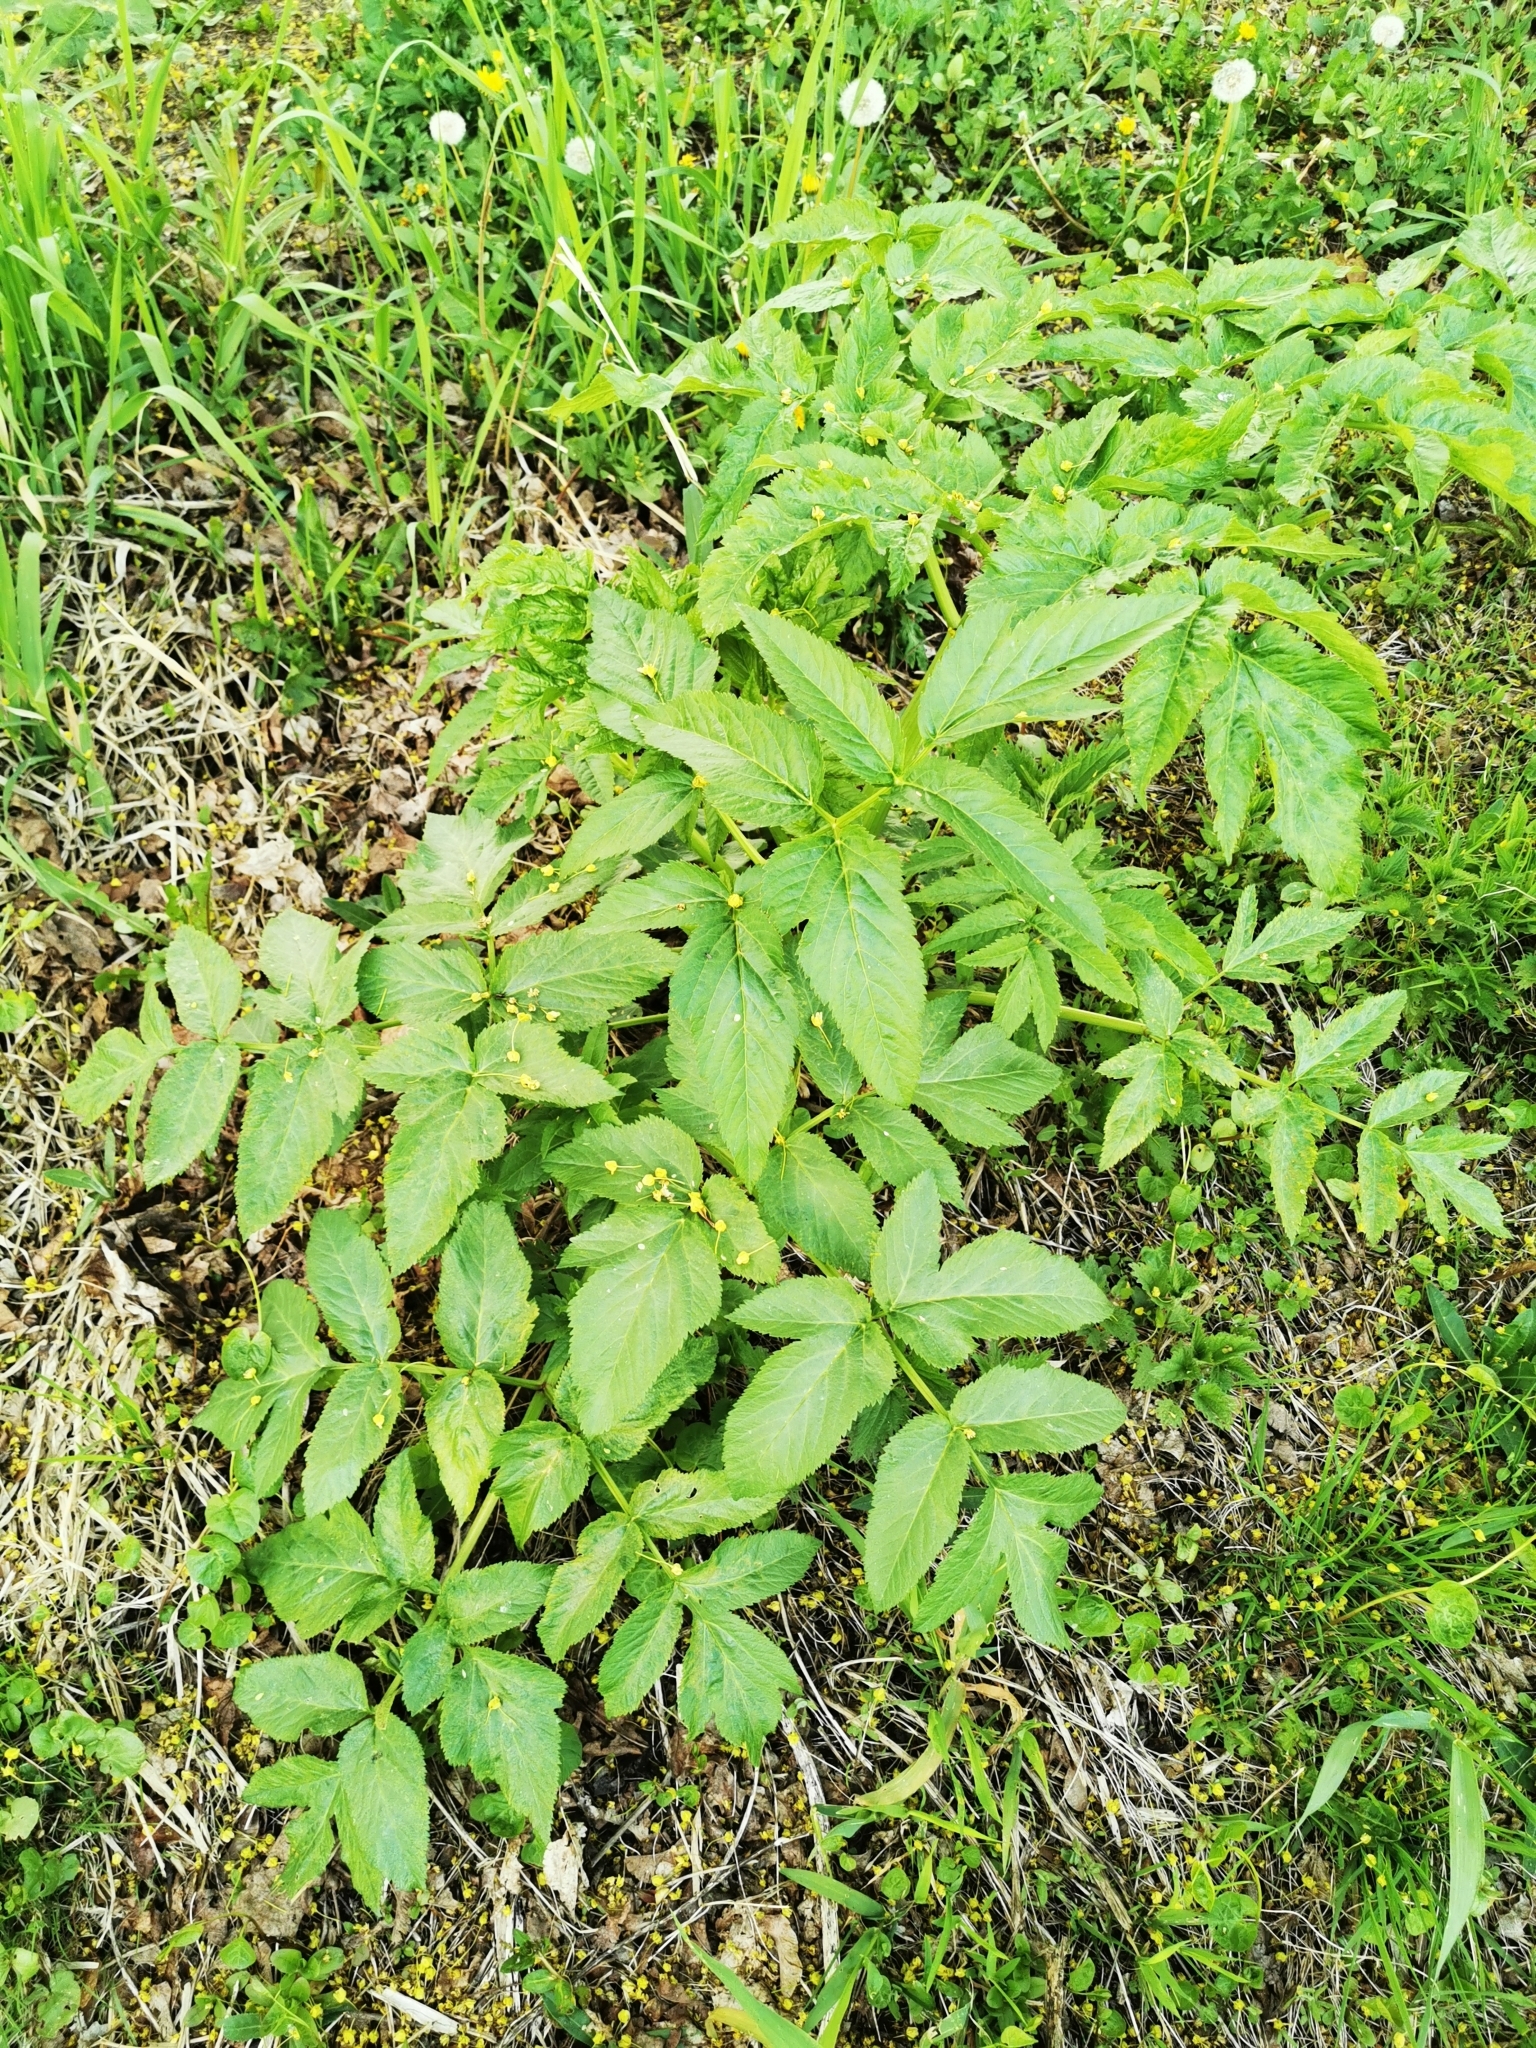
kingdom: Plantae
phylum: Tracheophyta
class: Magnoliopsida
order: Apiales
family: Apiaceae
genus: Angelica
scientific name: Angelica sylvestris
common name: Wild angelica
